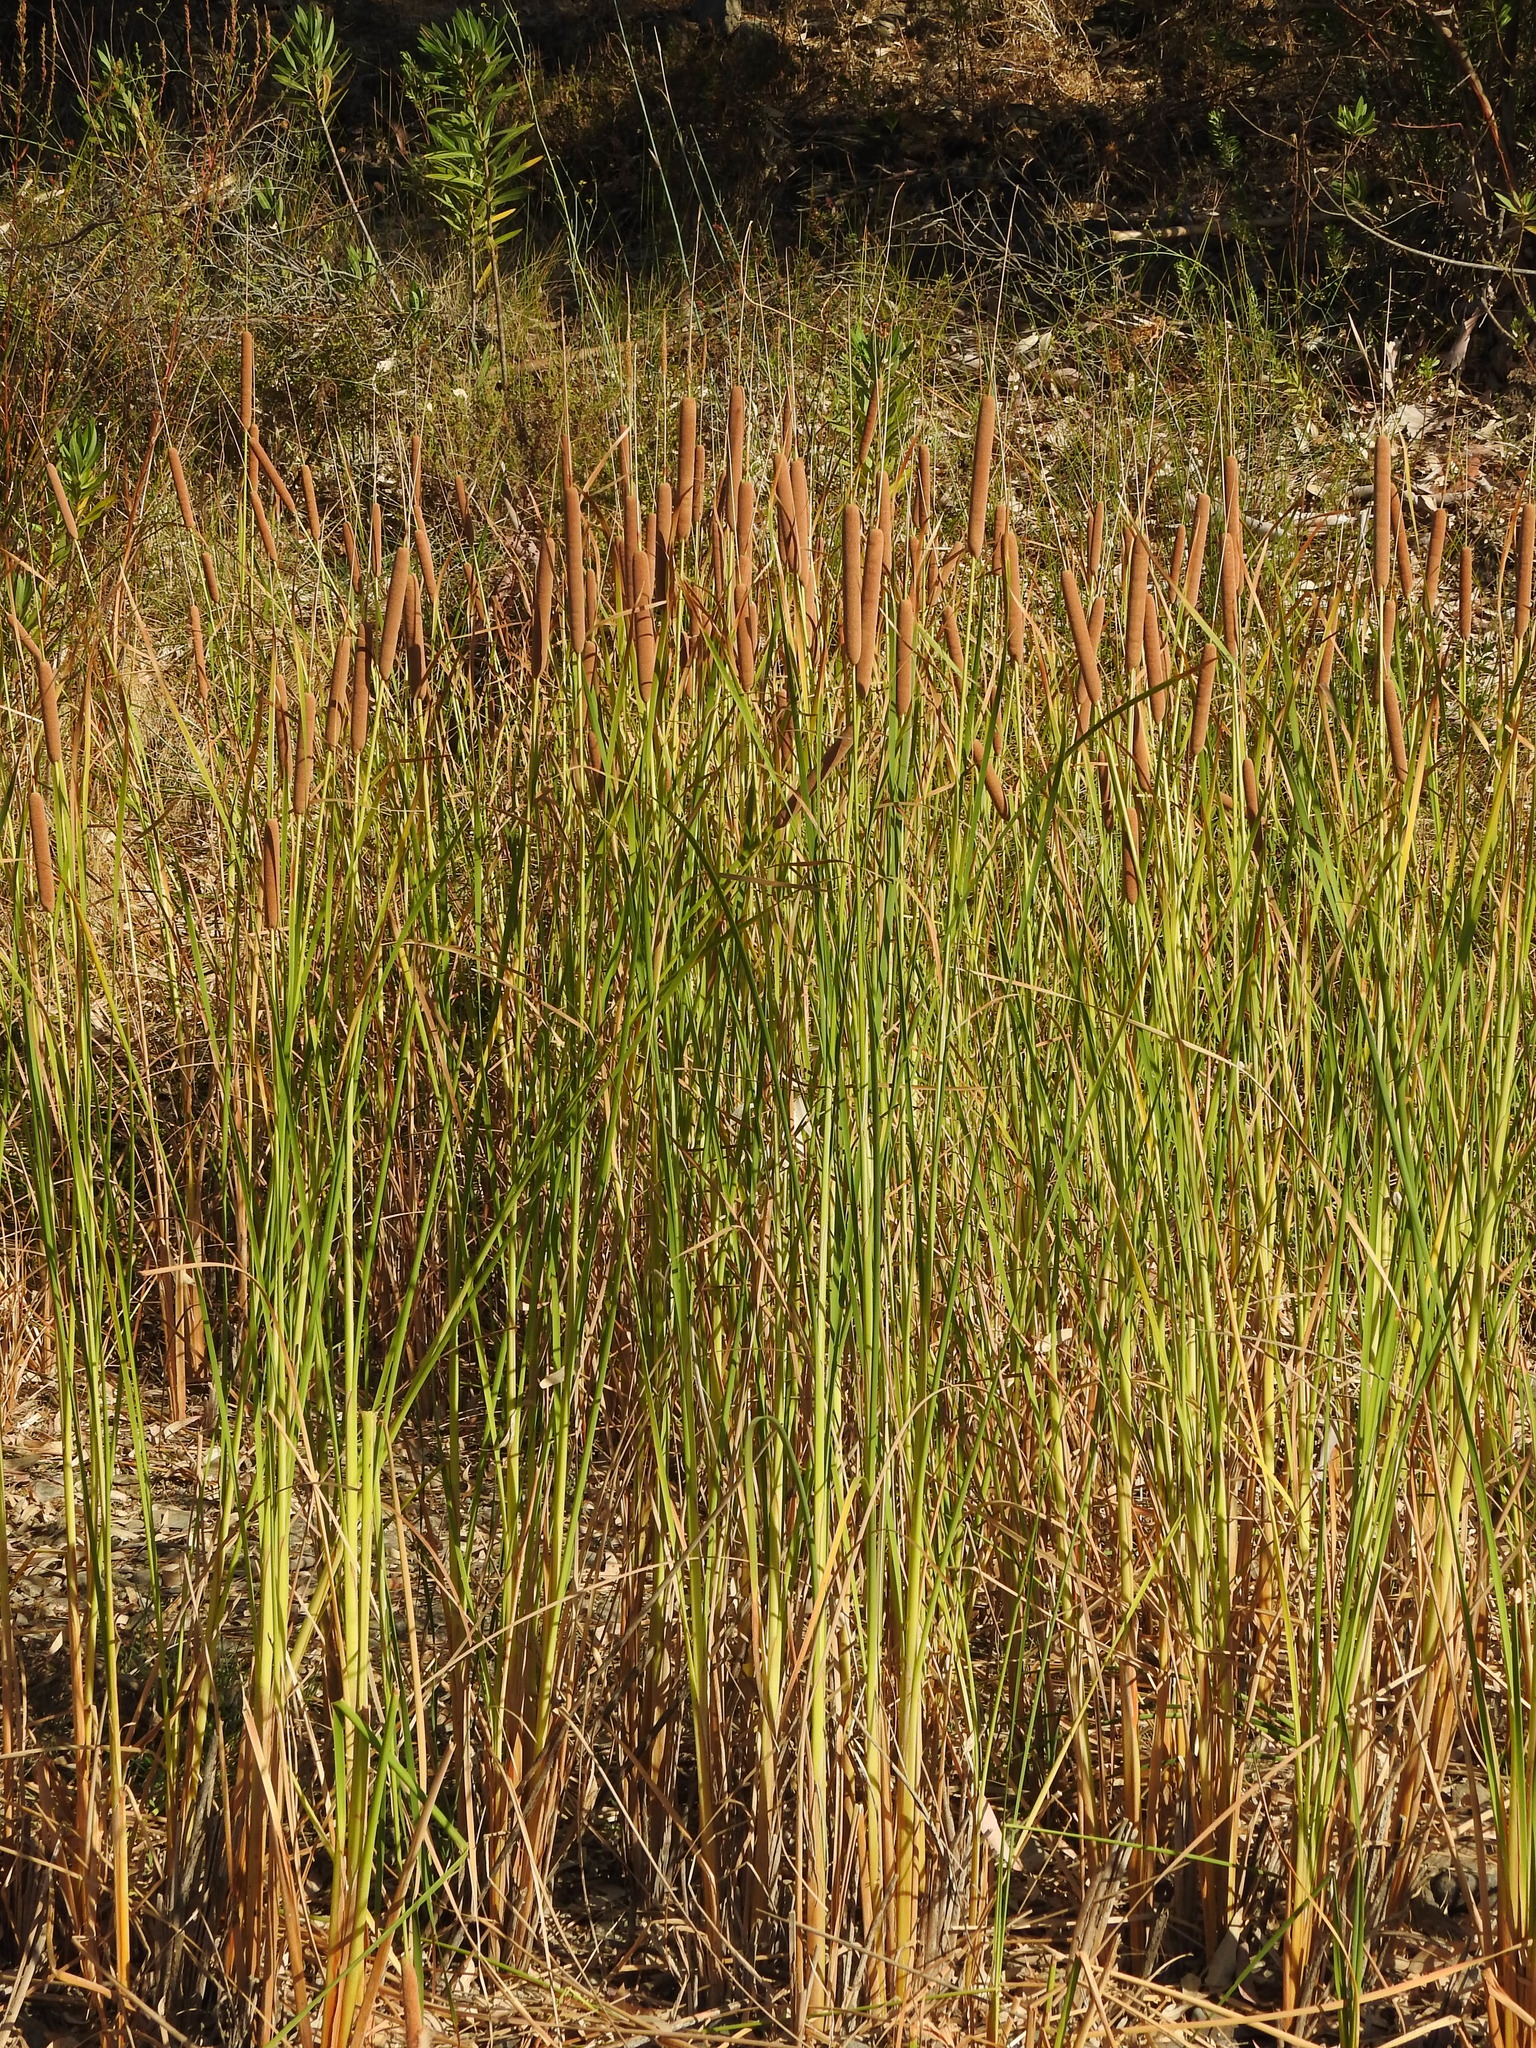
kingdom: Plantae
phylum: Tracheophyta
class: Liliopsida
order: Poales
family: Typhaceae
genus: Typha
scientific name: Typha domingensis
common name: Southern cattail
